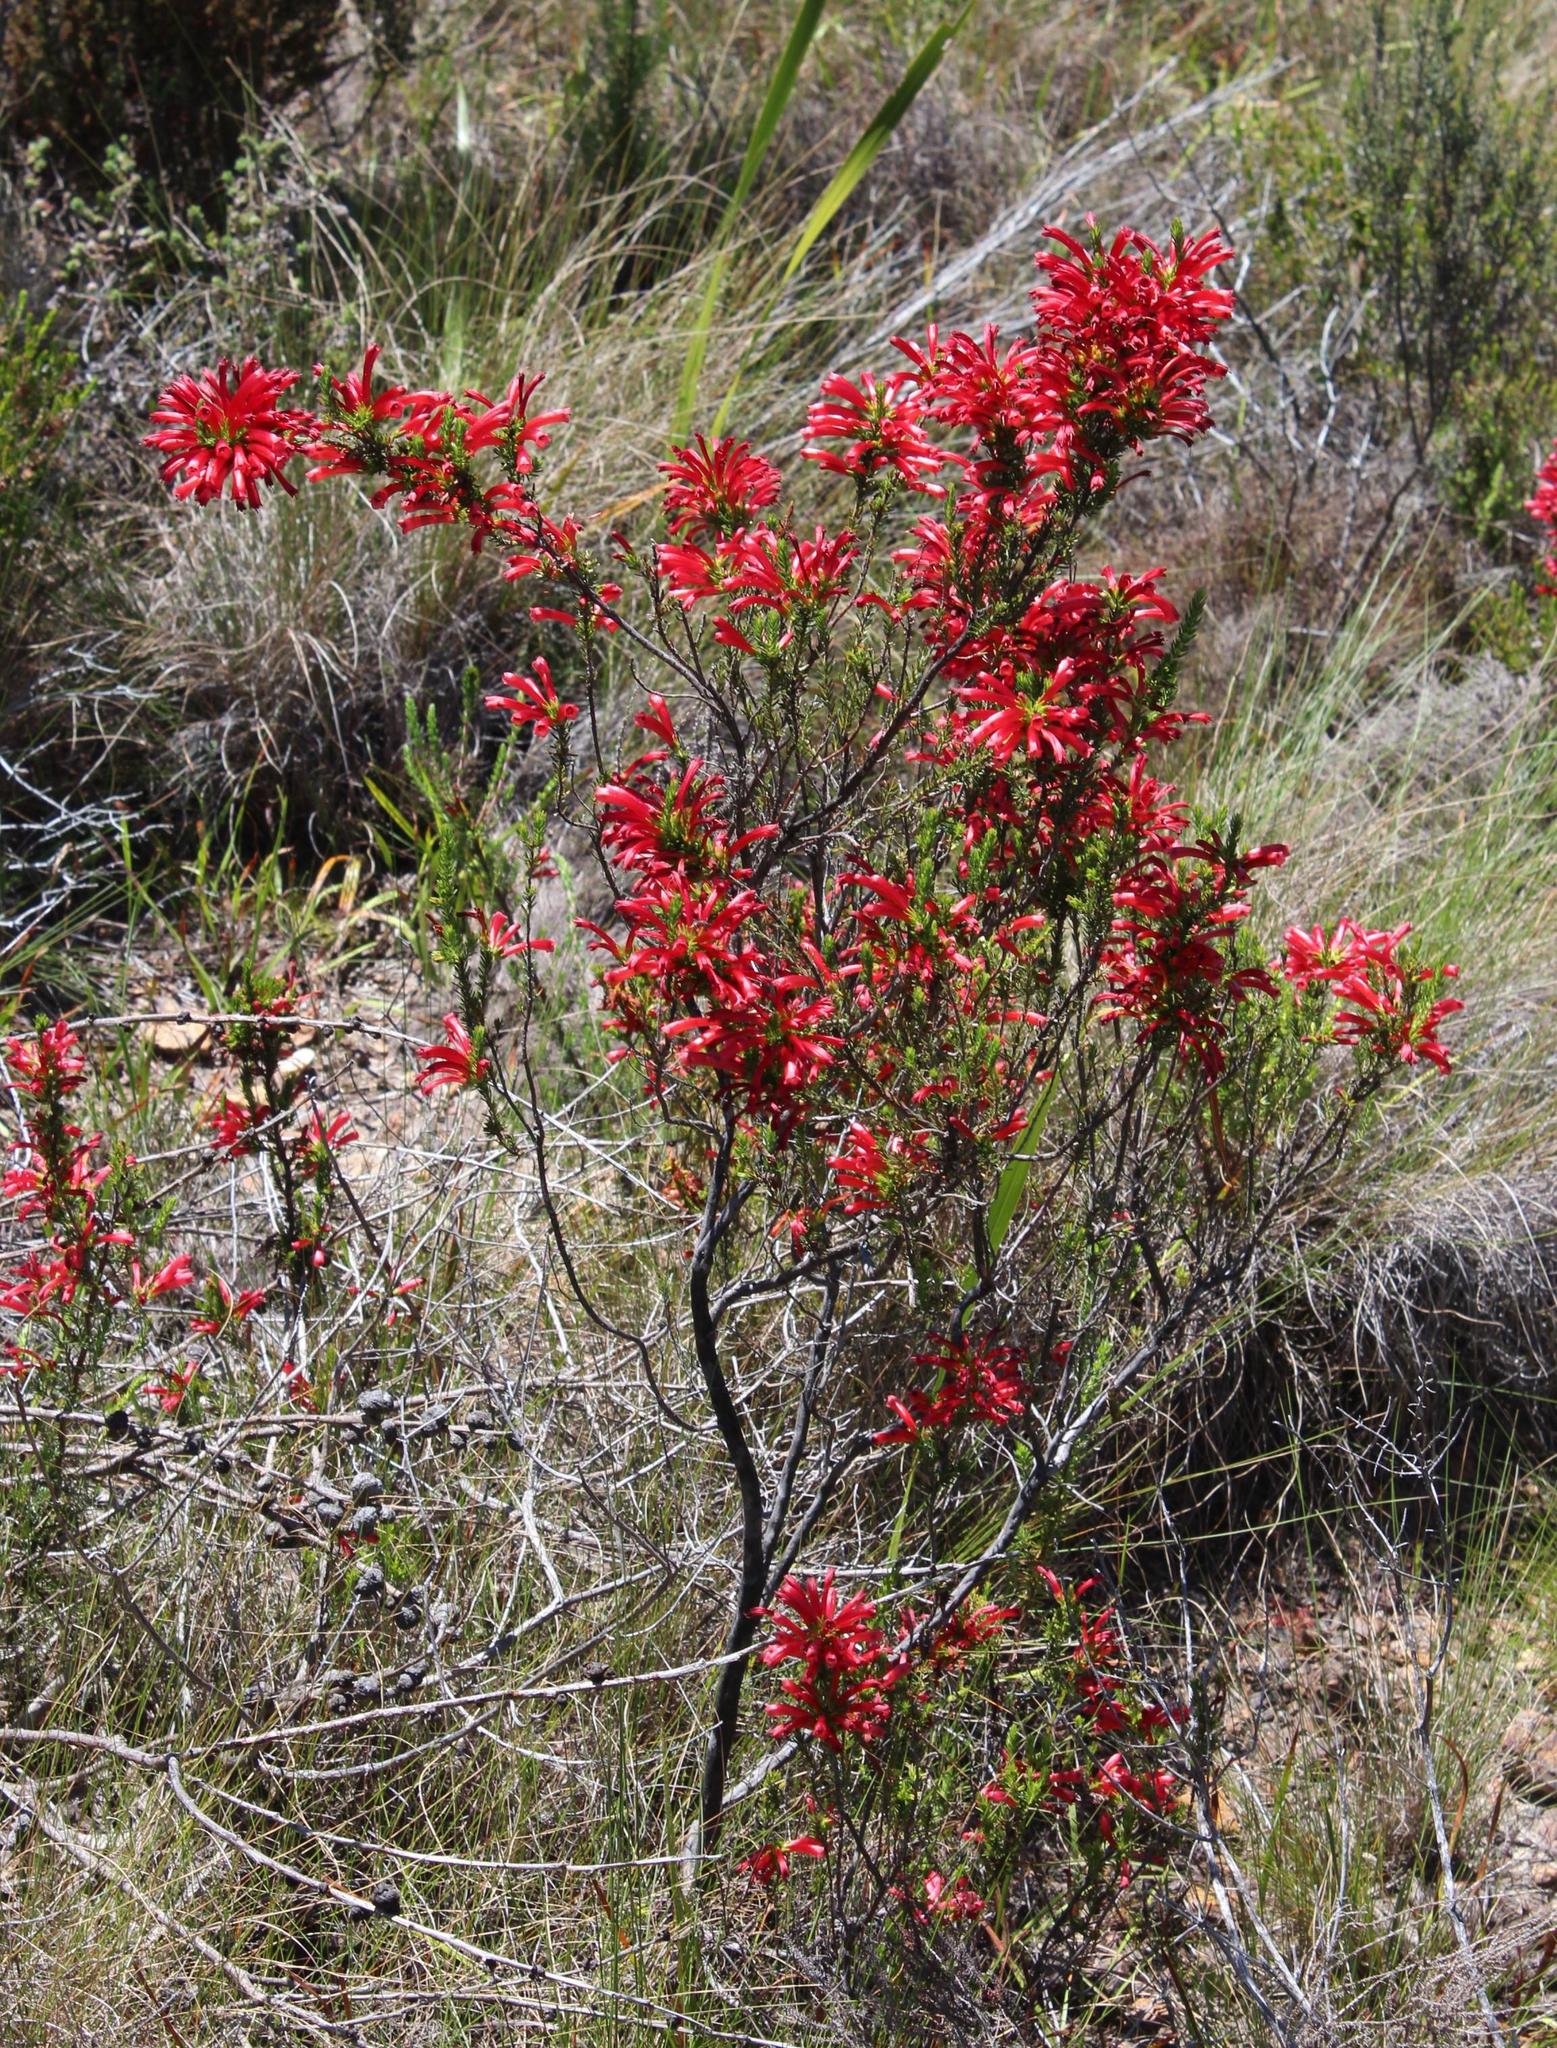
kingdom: Plantae
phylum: Tracheophyta
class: Magnoliopsida
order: Ericales
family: Ericaceae
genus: Erica
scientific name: Erica cruenta
